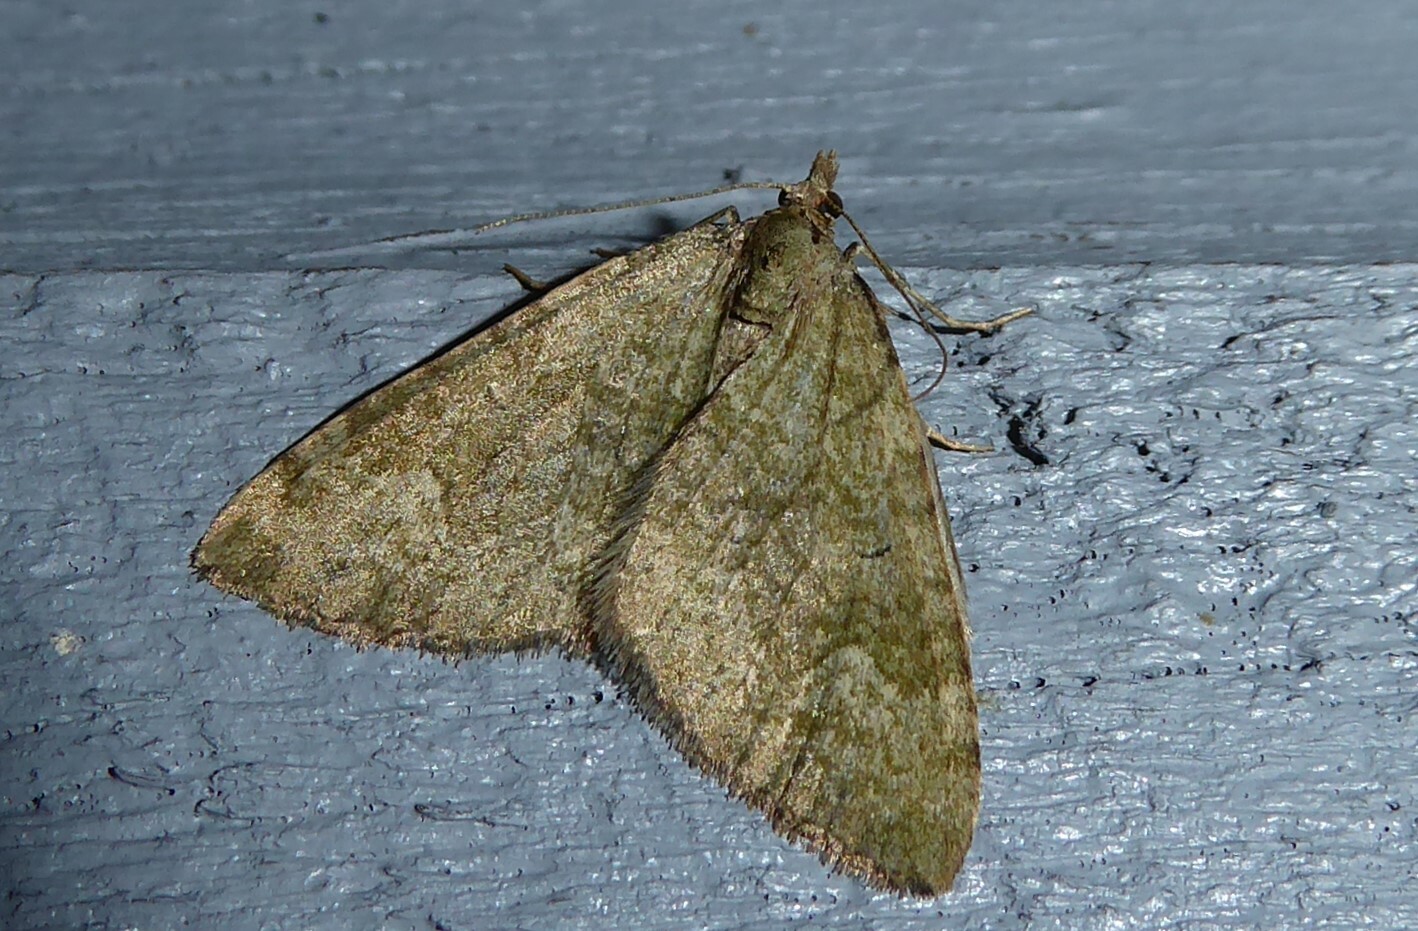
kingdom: Animalia
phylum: Arthropoda
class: Insecta
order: Lepidoptera
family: Geometridae
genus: Epyaxa
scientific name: Epyaxa rosearia
